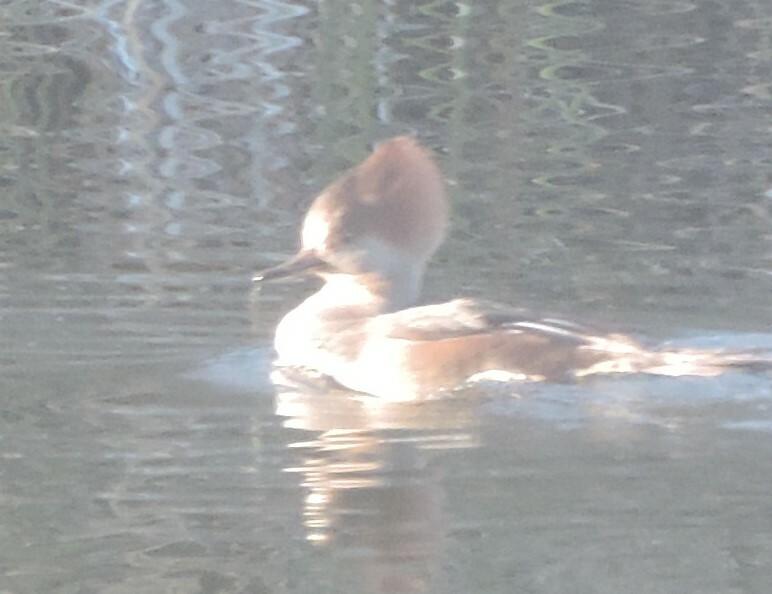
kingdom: Animalia
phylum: Chordata
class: Aves
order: Anseriformes
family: Anatidae
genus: Lophodytes
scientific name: Lophodytes cucullatus
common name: Hooded merganser
